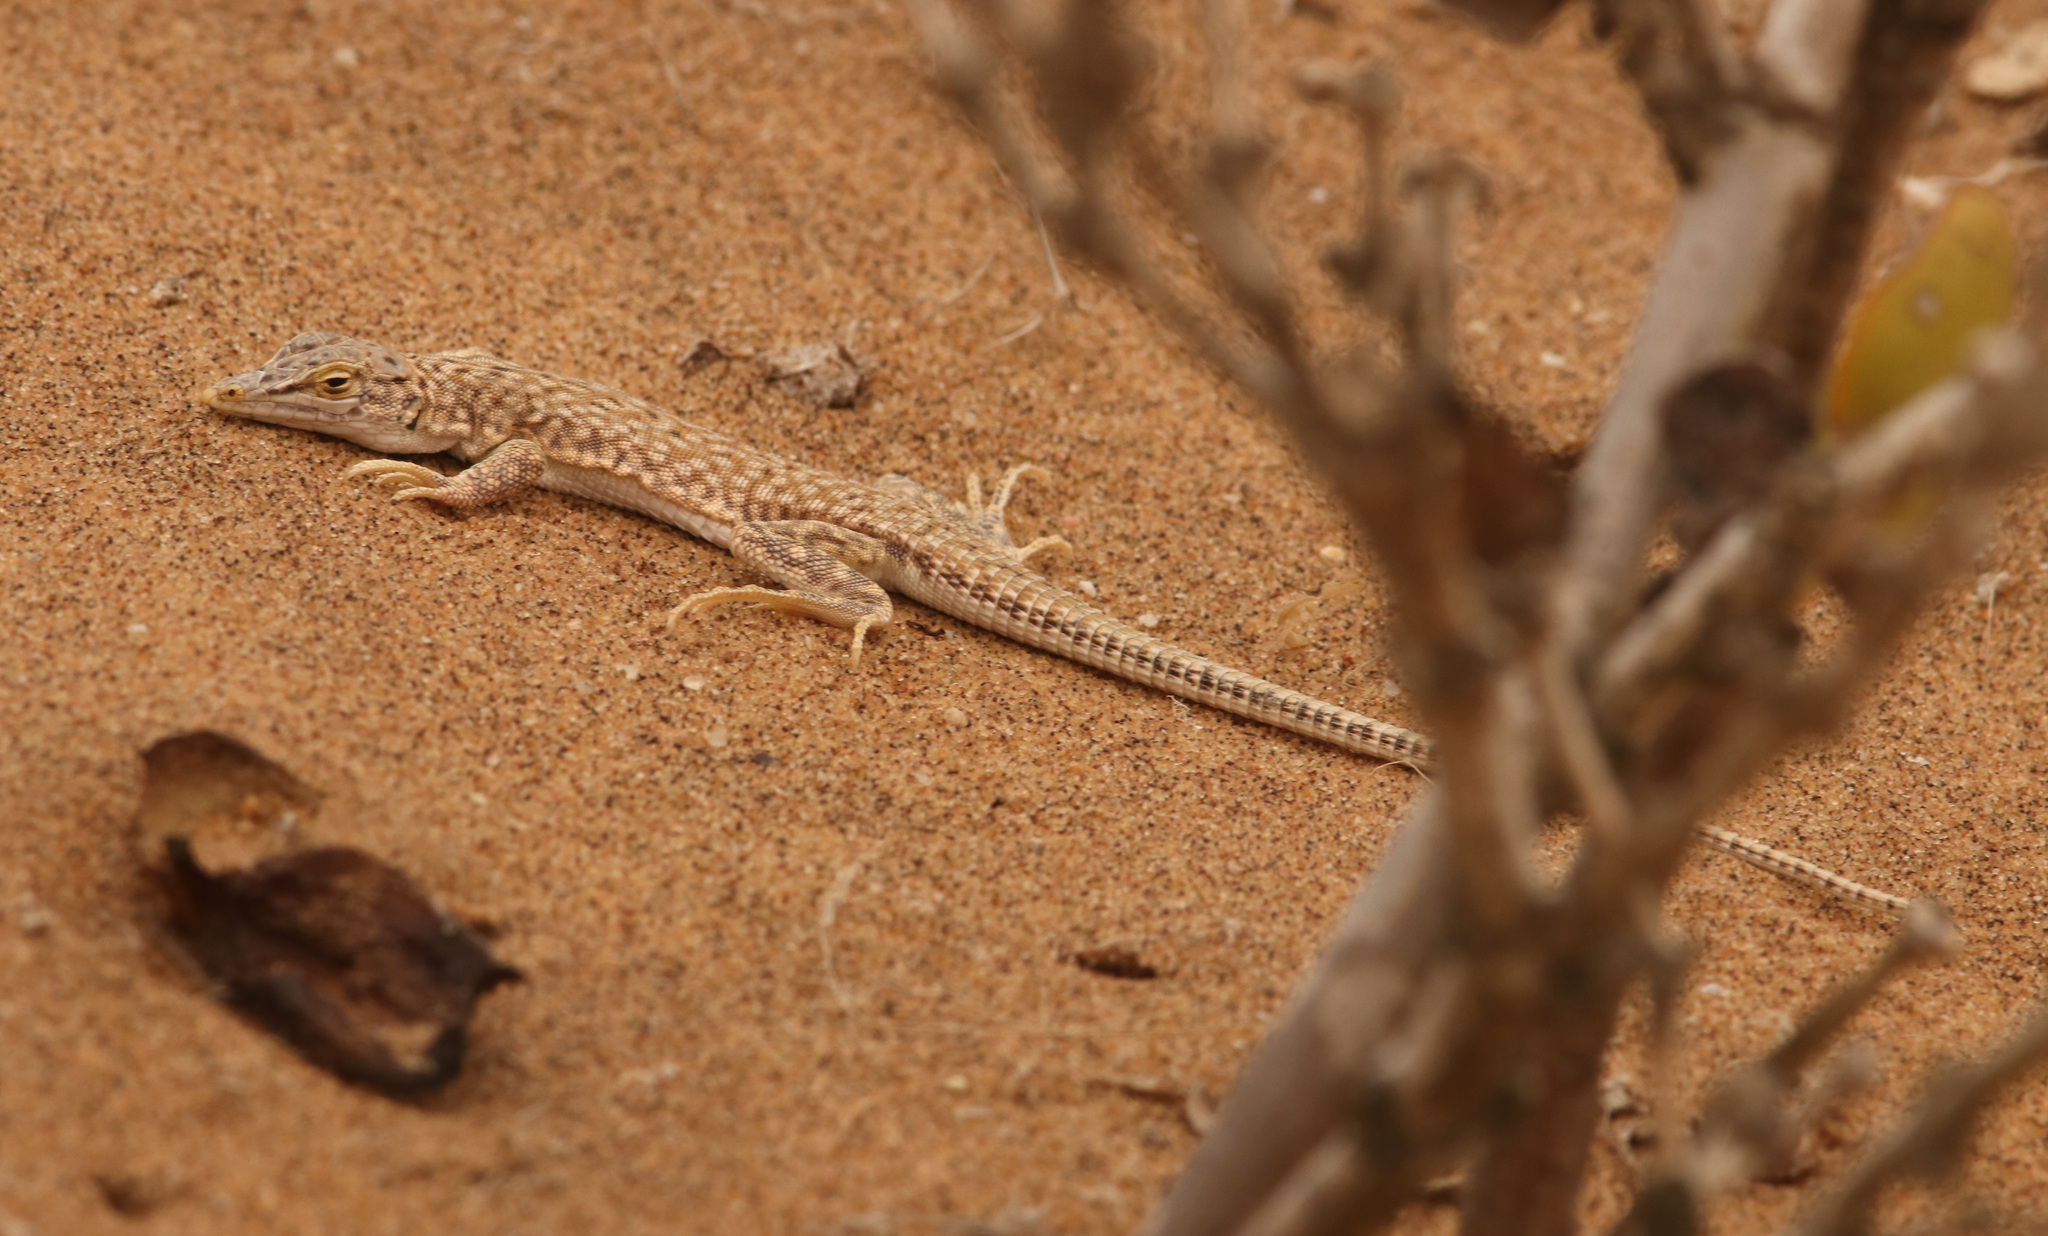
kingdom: Animalia
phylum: Chordata
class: Squamata
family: Lacertidae
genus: Meroles
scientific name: Meroles reticulatus
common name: Reticulate sand lizard
